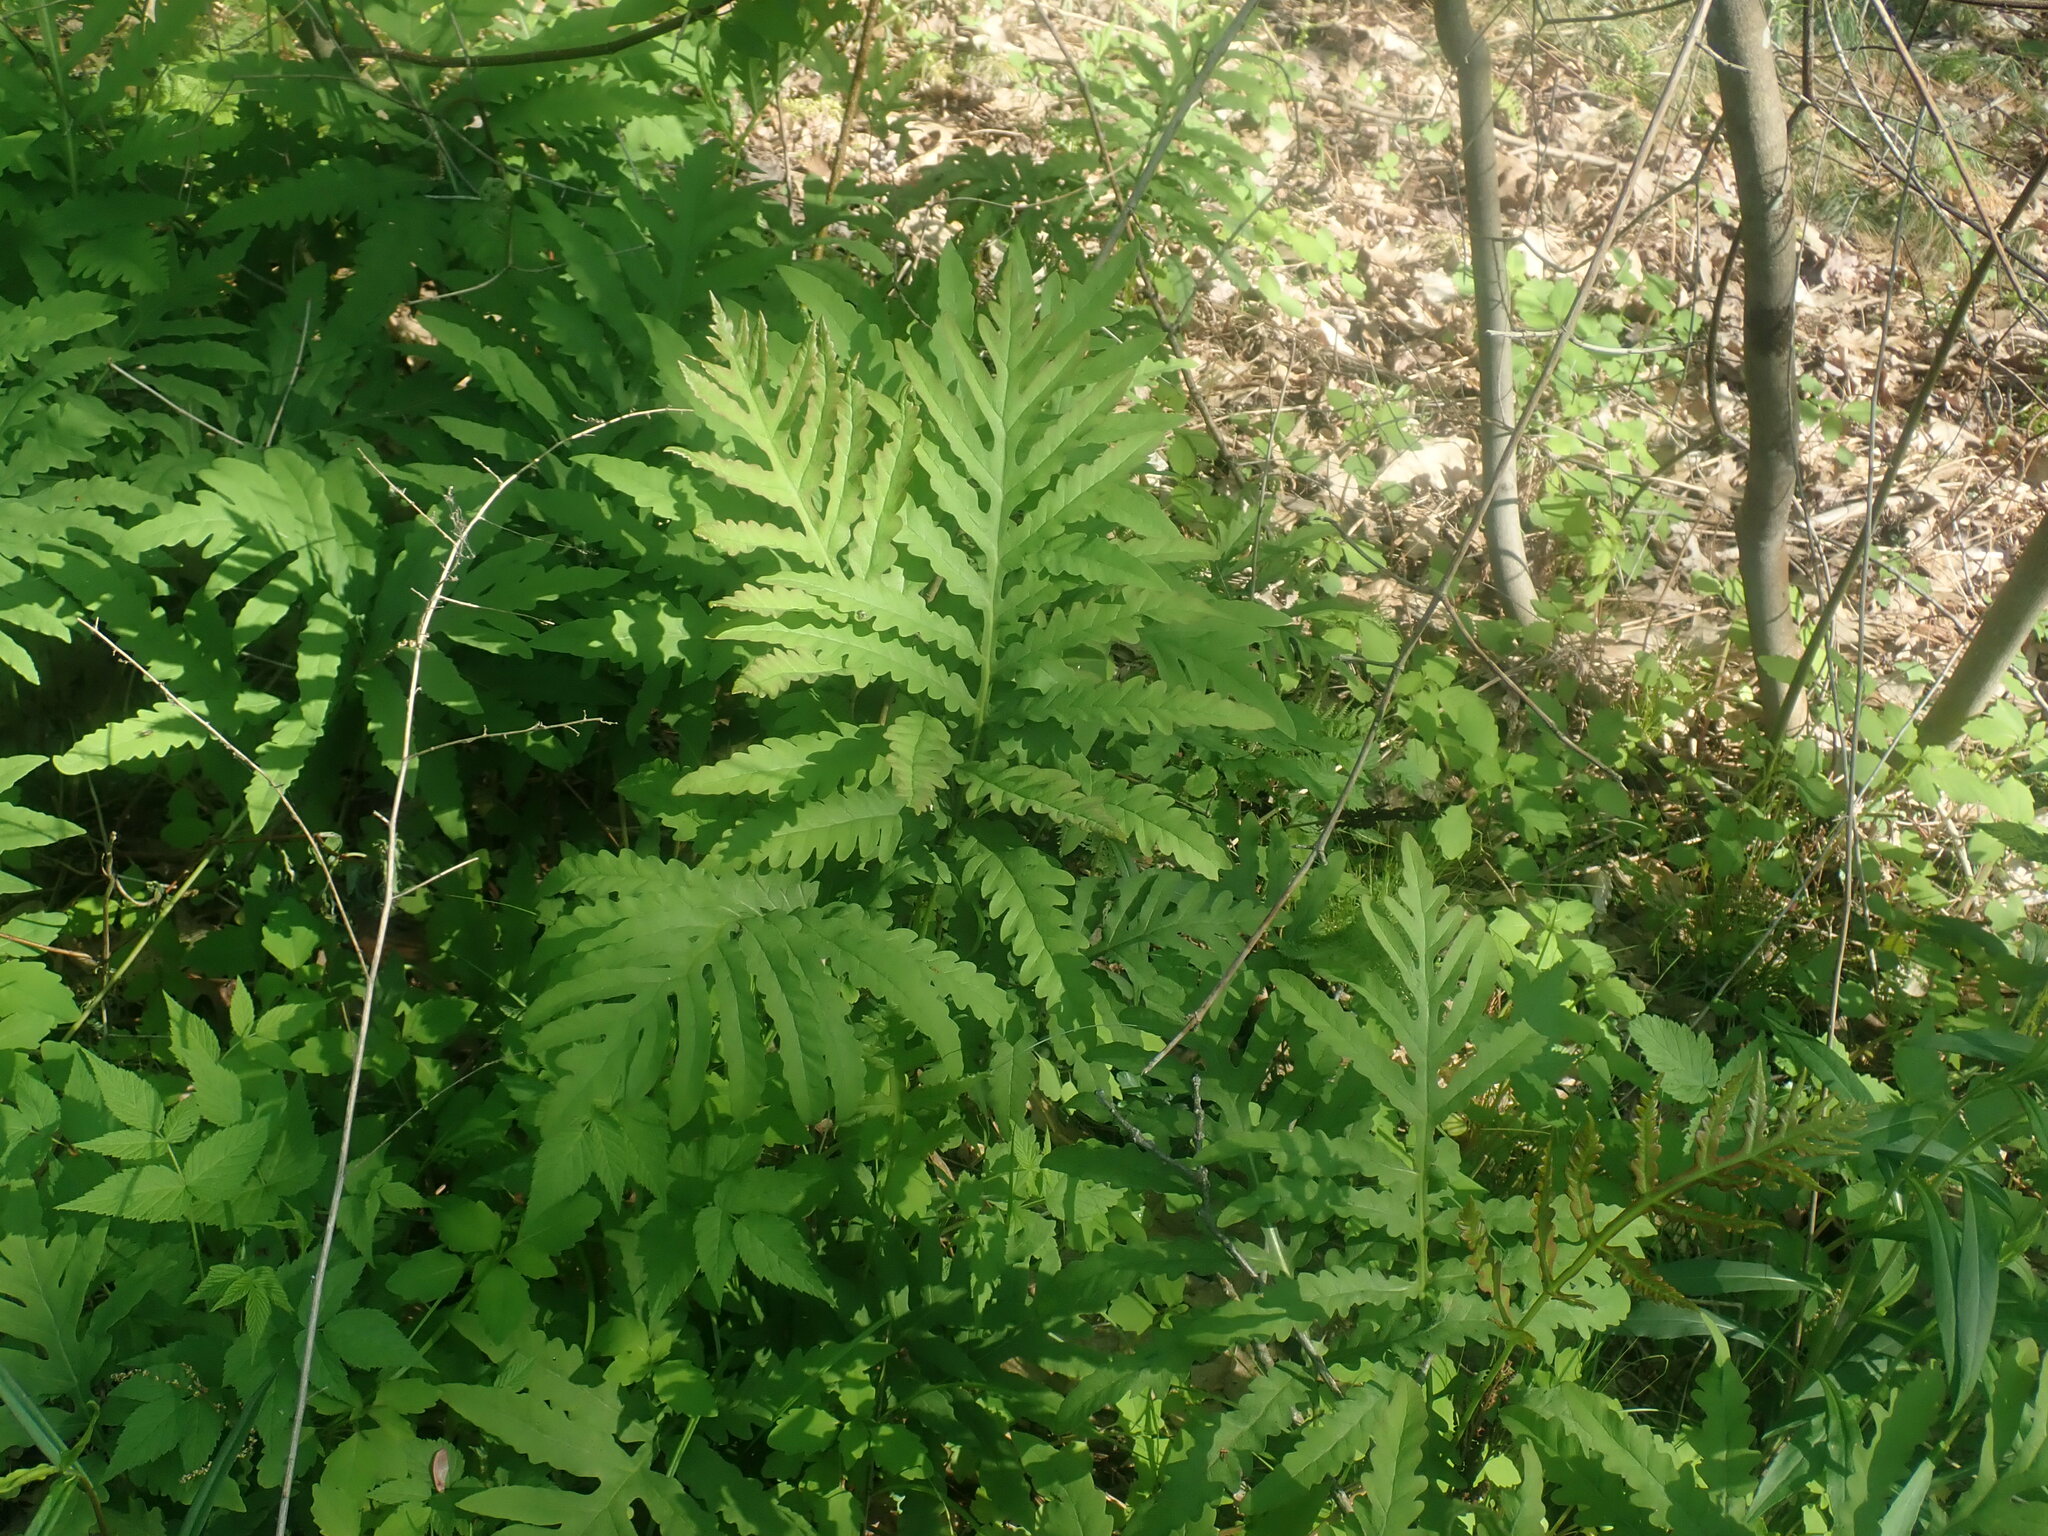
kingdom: Plantae
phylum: Tracheophyta
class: Polypodiopsida
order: Polypodiales
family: Onocleaceae
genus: Onoclea
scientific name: Onoclea sensibilis
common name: Sensitive fern
